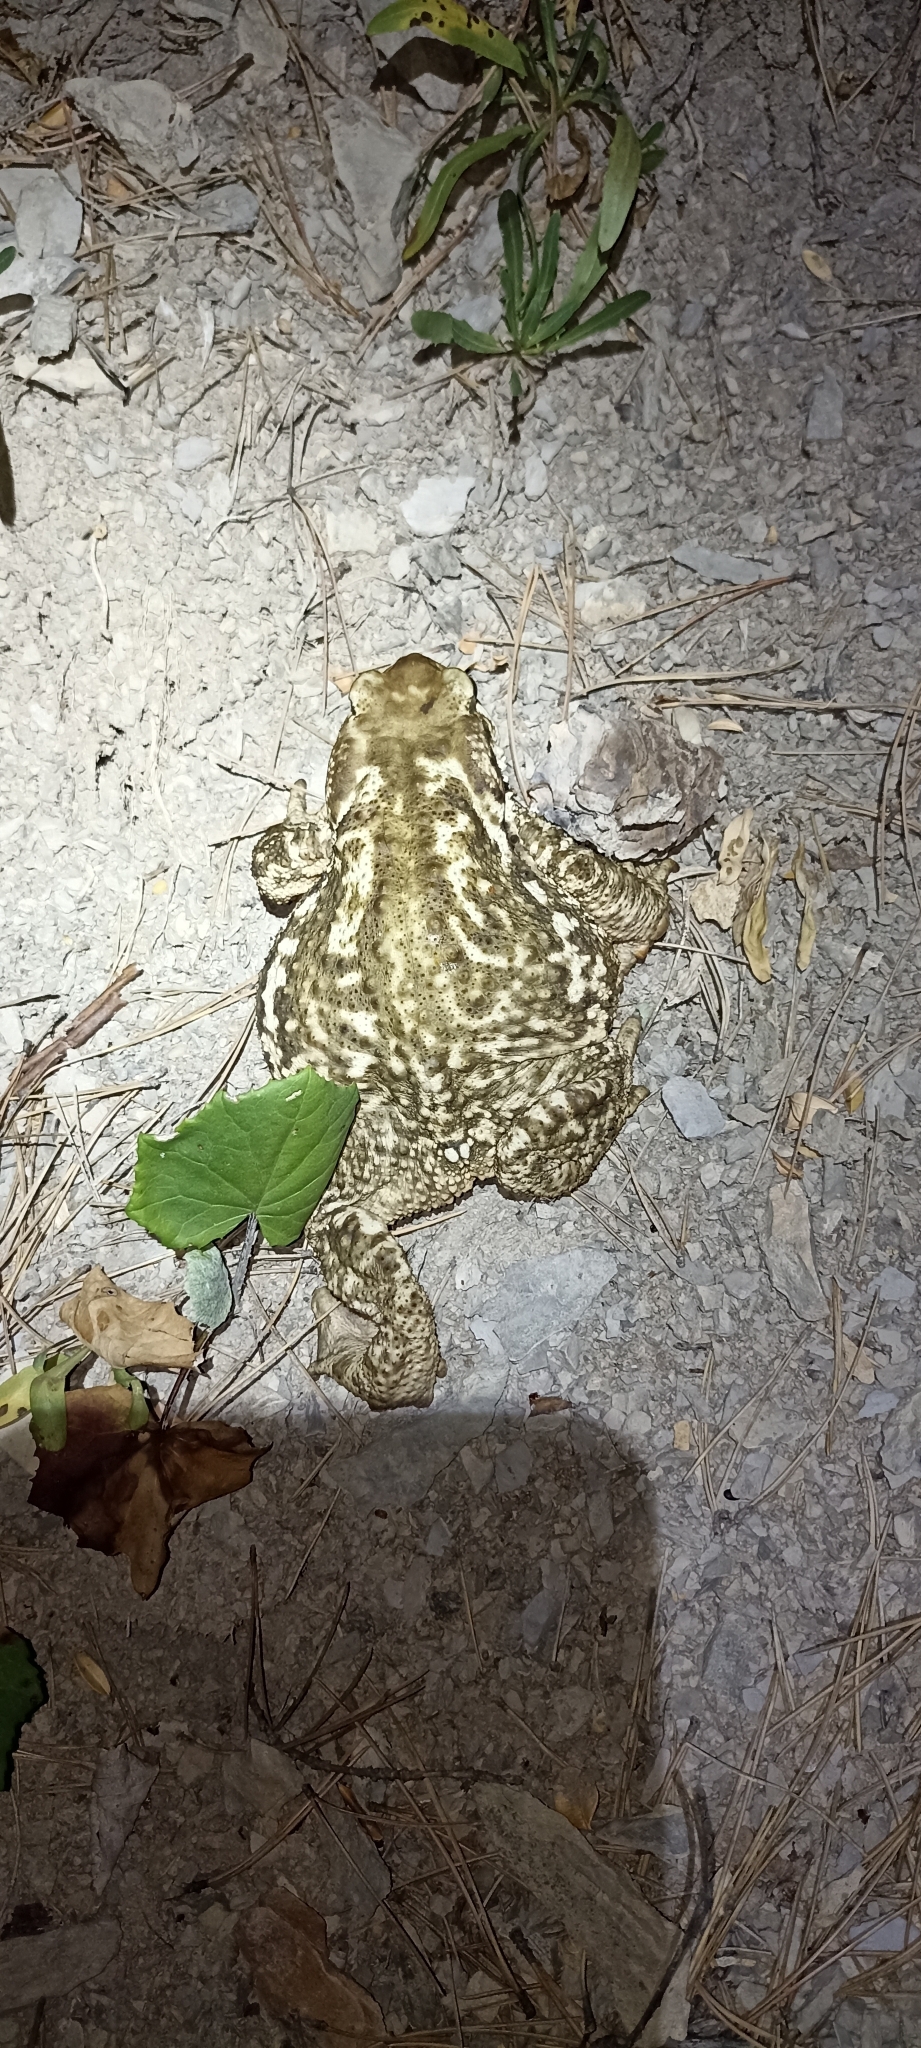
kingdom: Animalia
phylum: Chordata
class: Amphibia
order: Anura
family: Bufonidae
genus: Bufo
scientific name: Bufo spinosus
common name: Western common toad
